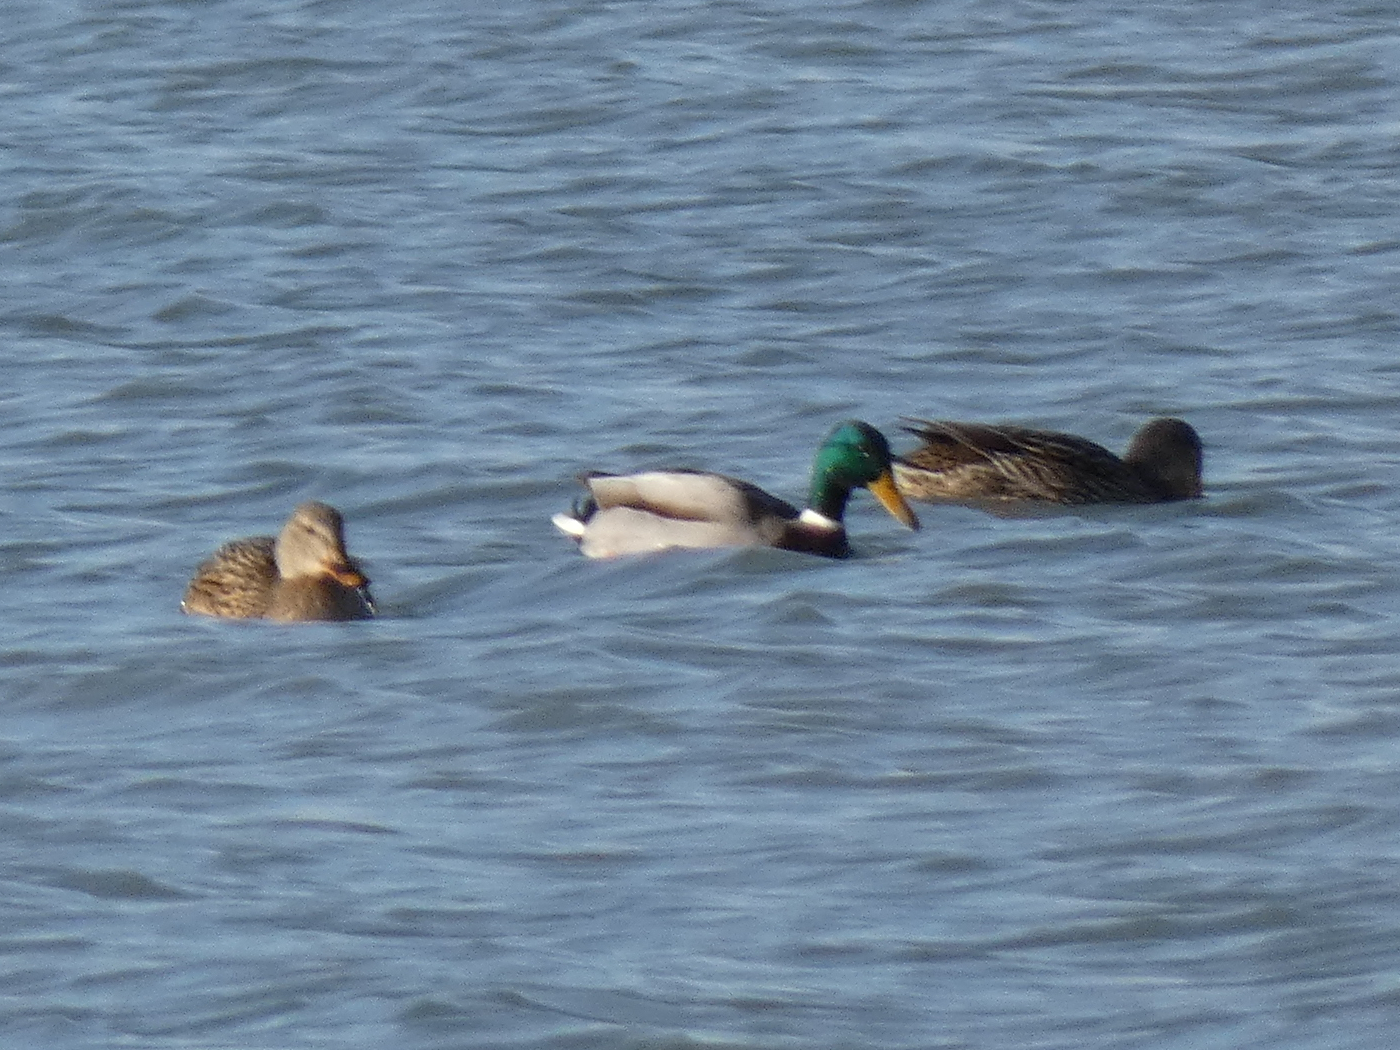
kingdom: Animalia
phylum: Chordata
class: Aves
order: Anseriformes
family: Anatidae
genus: Anas
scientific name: Anas platyrhynchos
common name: Mallard
